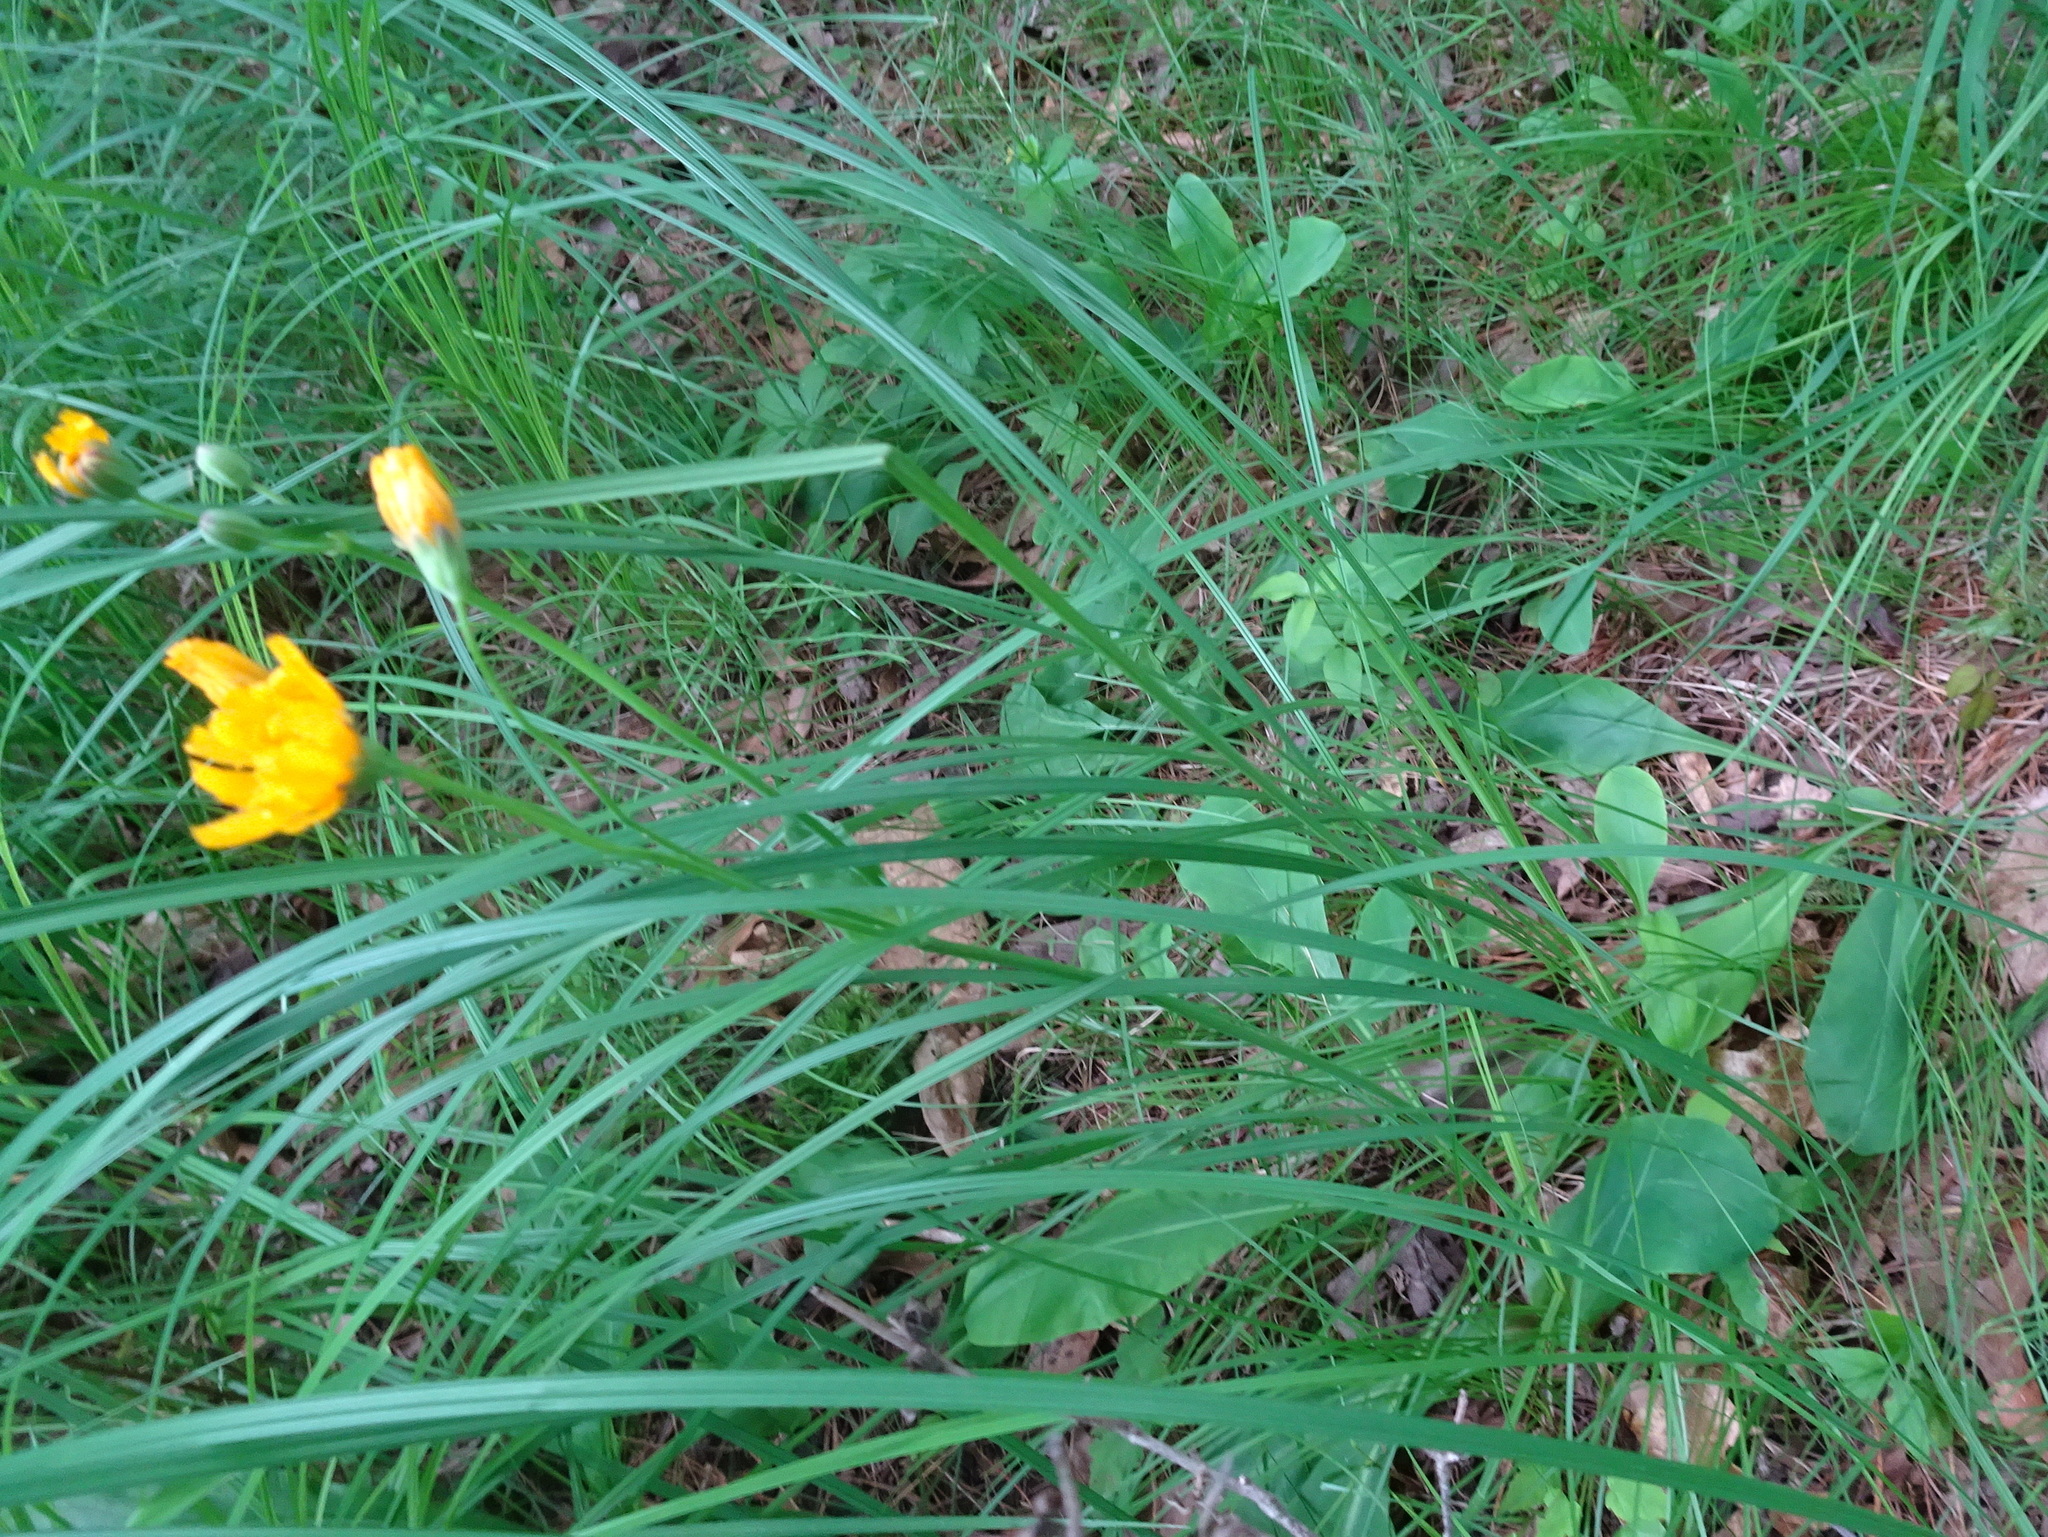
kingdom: Plantae
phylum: Tracheophyta
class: Magnoliopsida
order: Asterales
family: Asteraceae
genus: Krigia
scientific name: Krigia biflora
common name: Orange dwarf-dandelion
